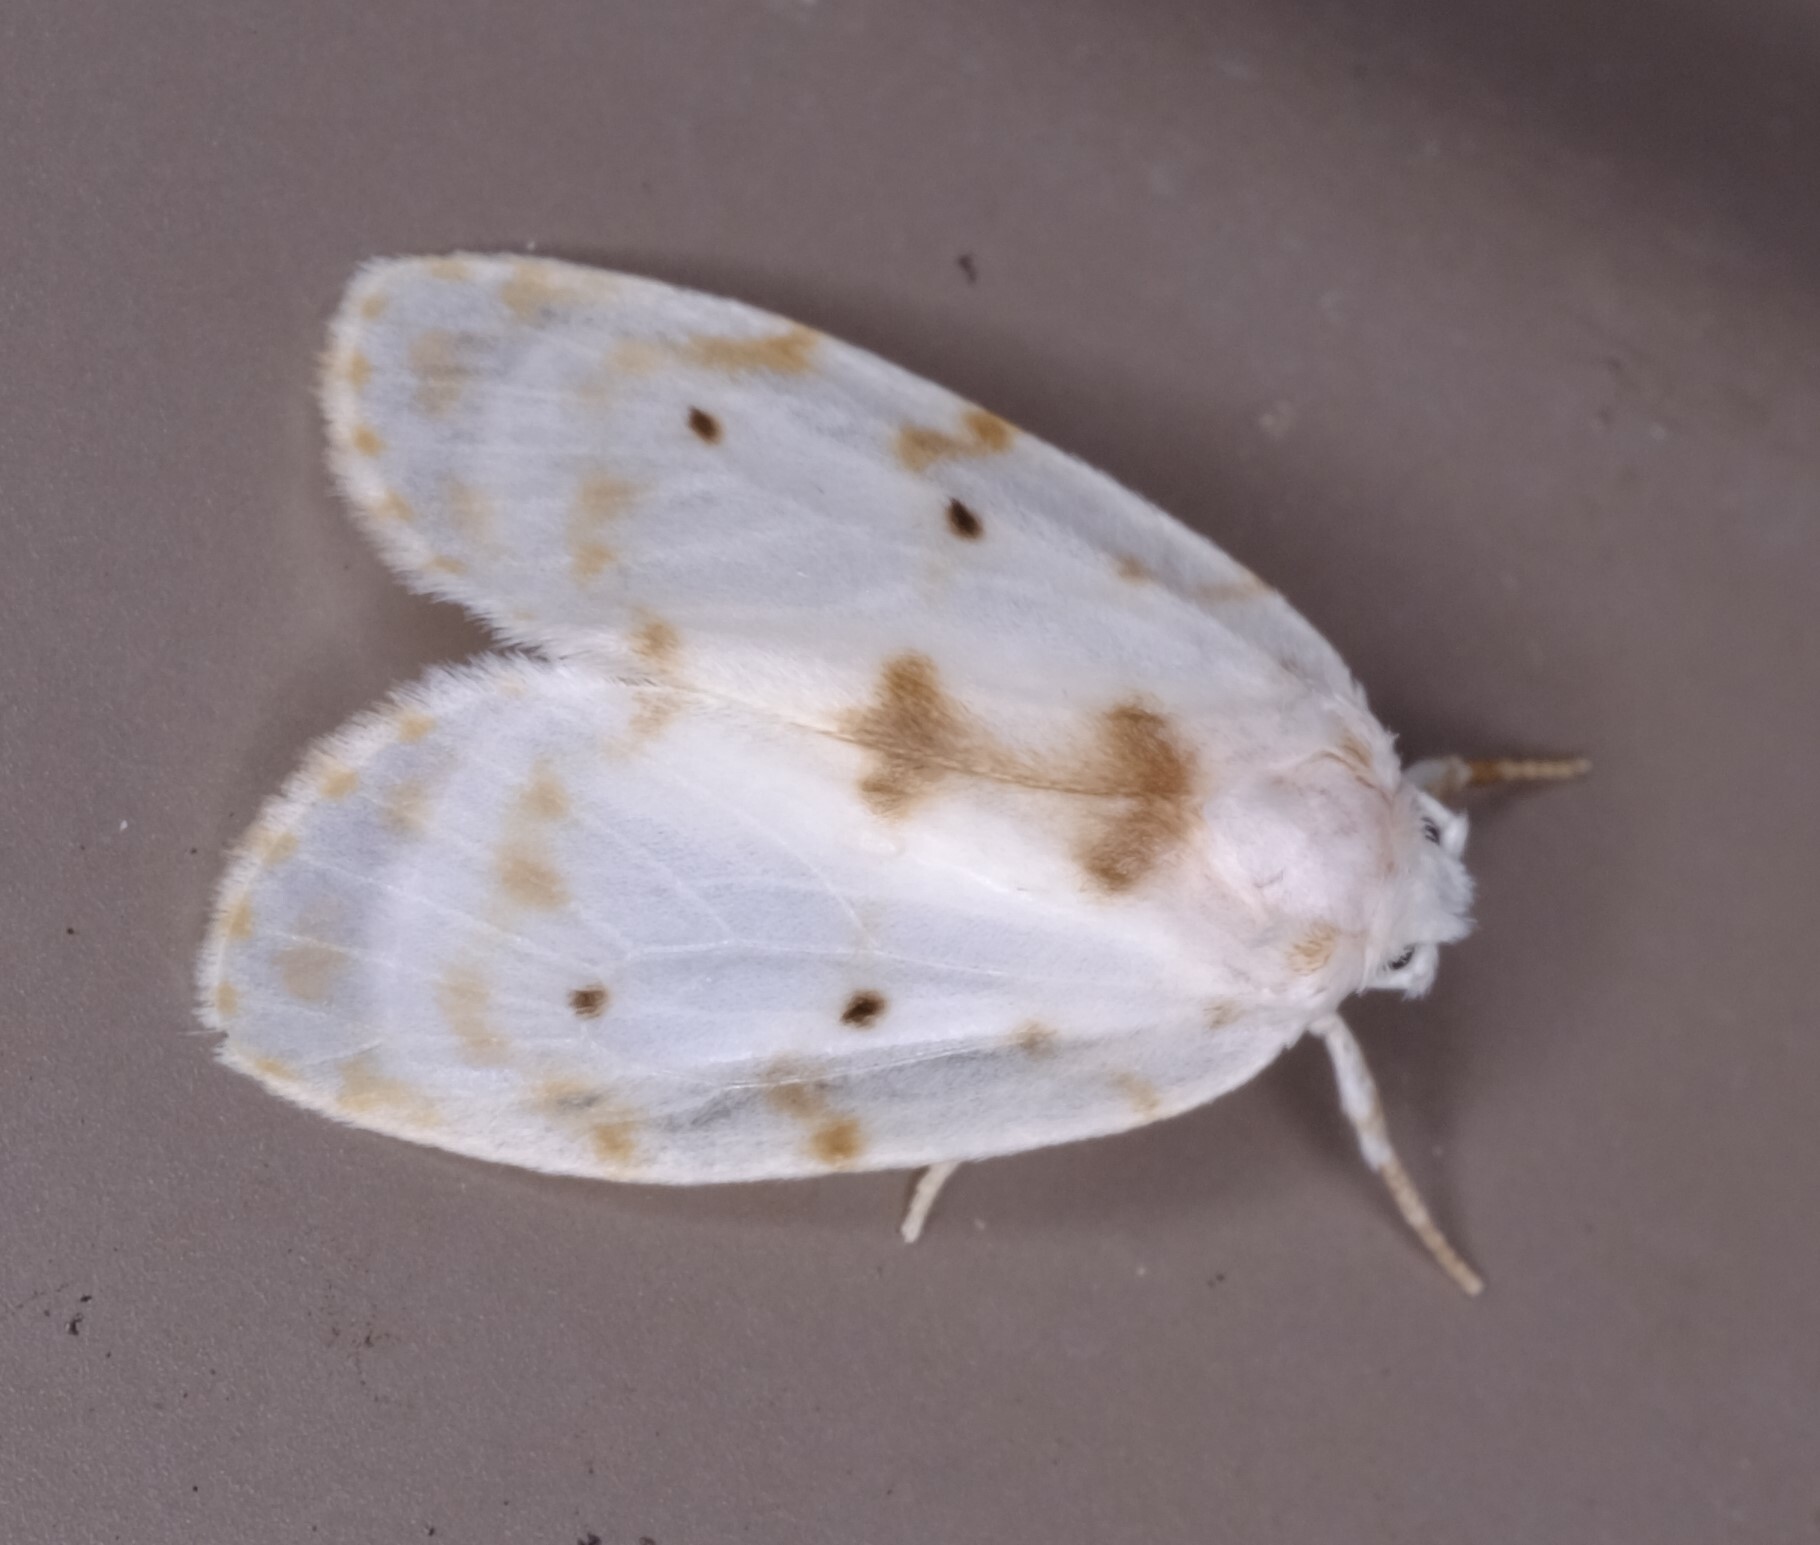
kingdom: Animalia
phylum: Arthropoda
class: Insecta
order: Lepidoptera
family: Erebidae
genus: Schistophleps
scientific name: Schistophleps albida
